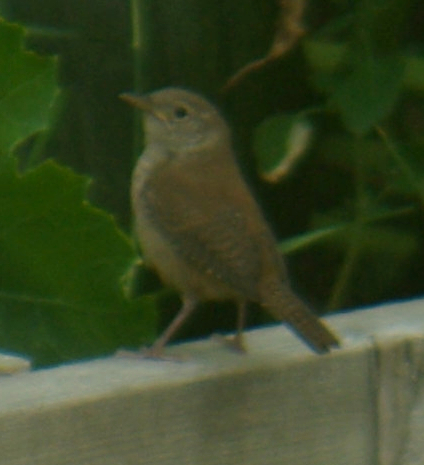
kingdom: Animalia
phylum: Chordata
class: Aves
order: Passeriformes
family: Troglodytidae
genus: Troglodytes
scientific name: Troglodytes aedon
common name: House wren
